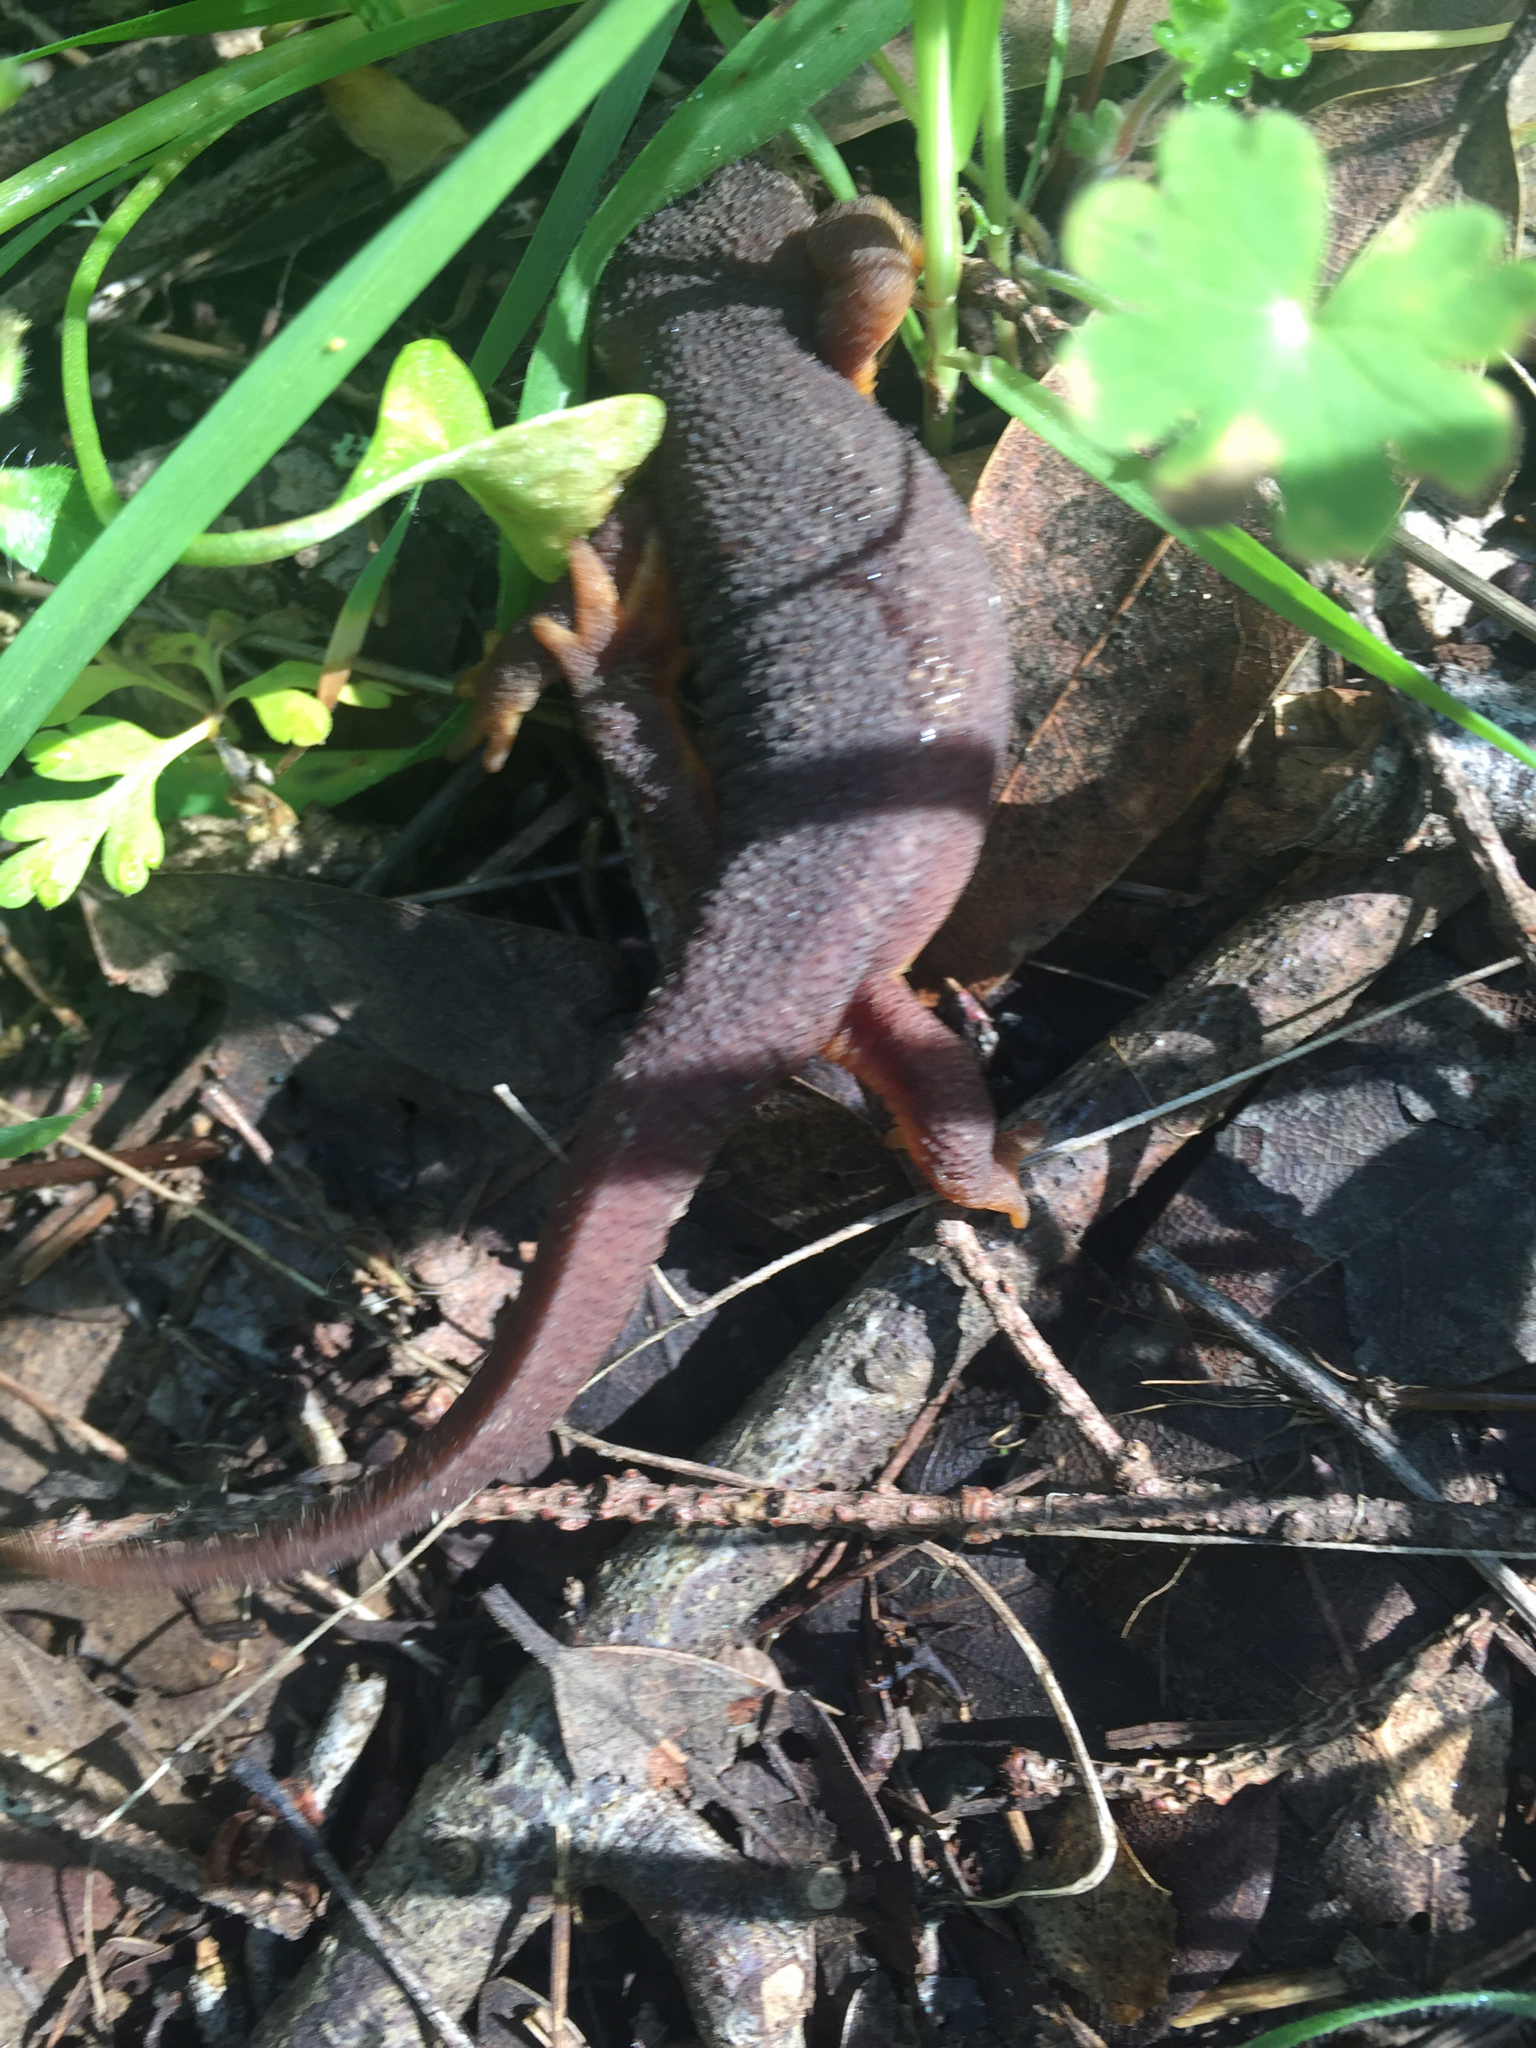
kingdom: Animalia
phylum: Chordata
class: Amphibia
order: Caudata
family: Salamandridae
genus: Taricha
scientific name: Taricha torosa
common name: California newt
